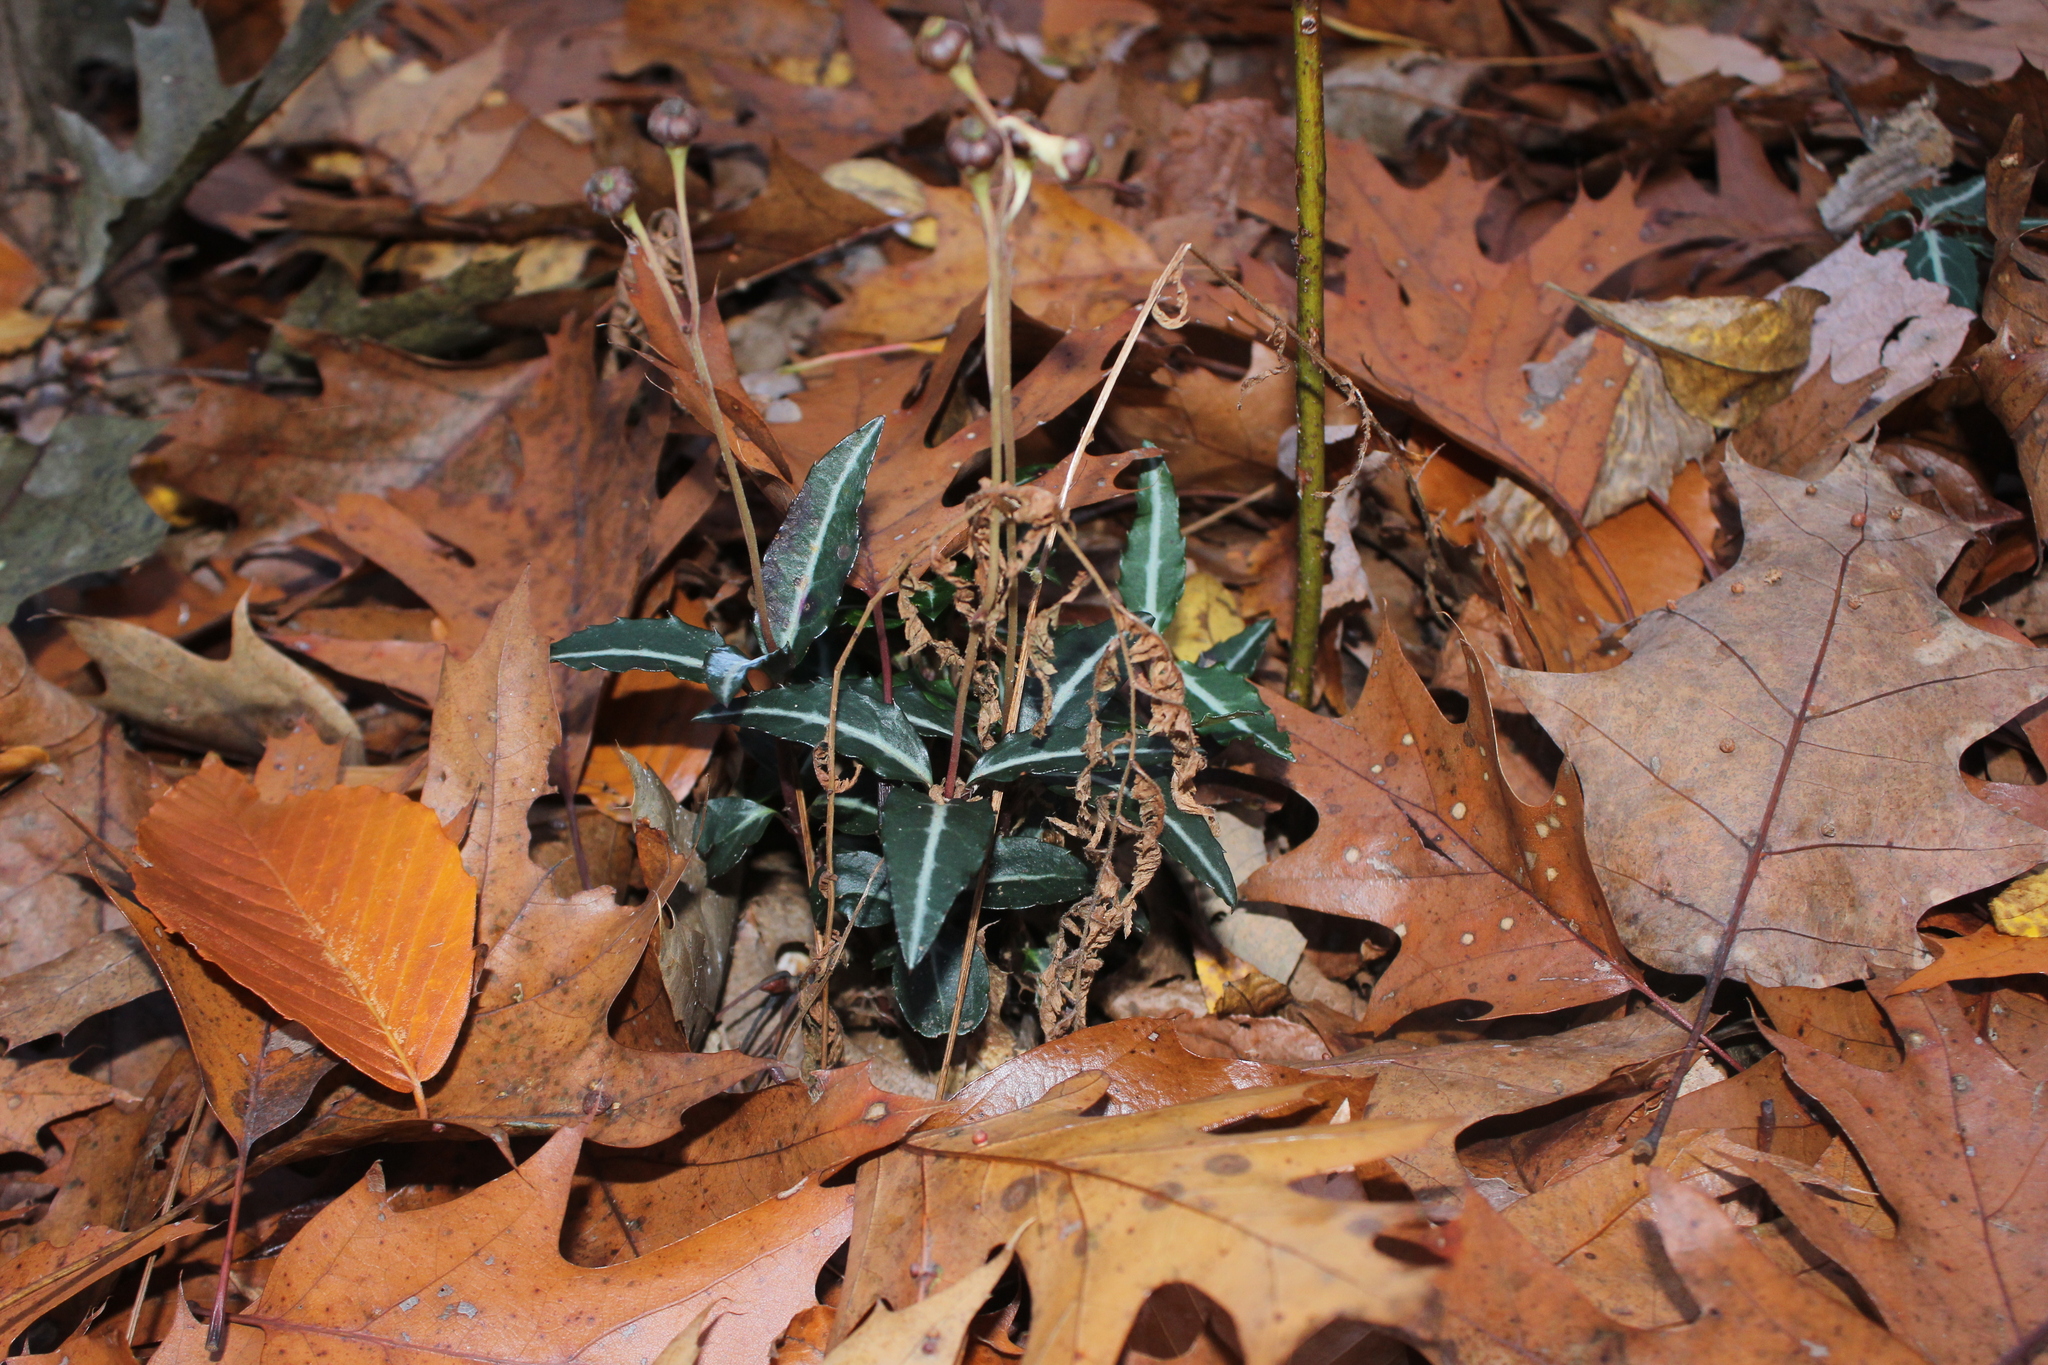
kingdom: Plantae
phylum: Tracheophyta
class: Magnoliopsida
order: Ericales
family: Ericaceae
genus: Chimaphila
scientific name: Chimaphila maculata
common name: Spotted pipsissewa
